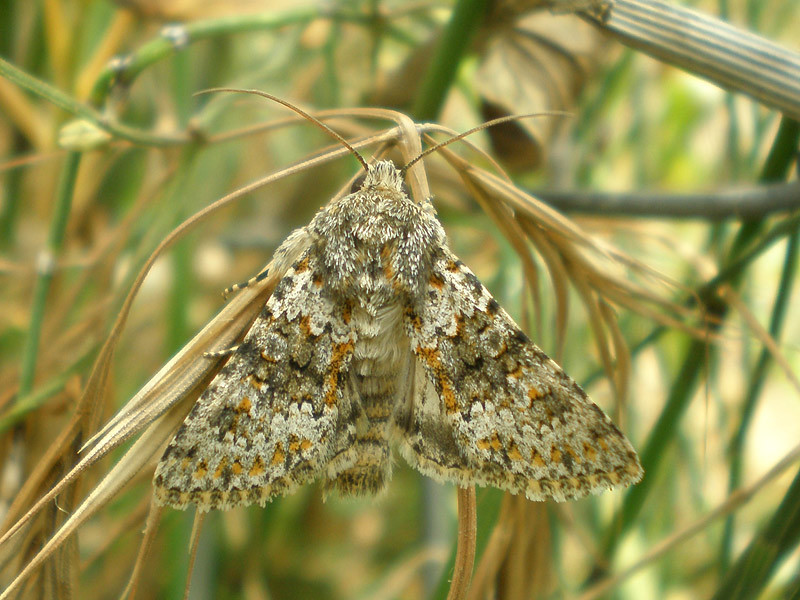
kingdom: Animalia
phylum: Arthropoda
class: Insecta
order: Lepidoptera
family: Noctuidae
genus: Hecatera
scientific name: Hecatera dysodea
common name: Small ranunculus
